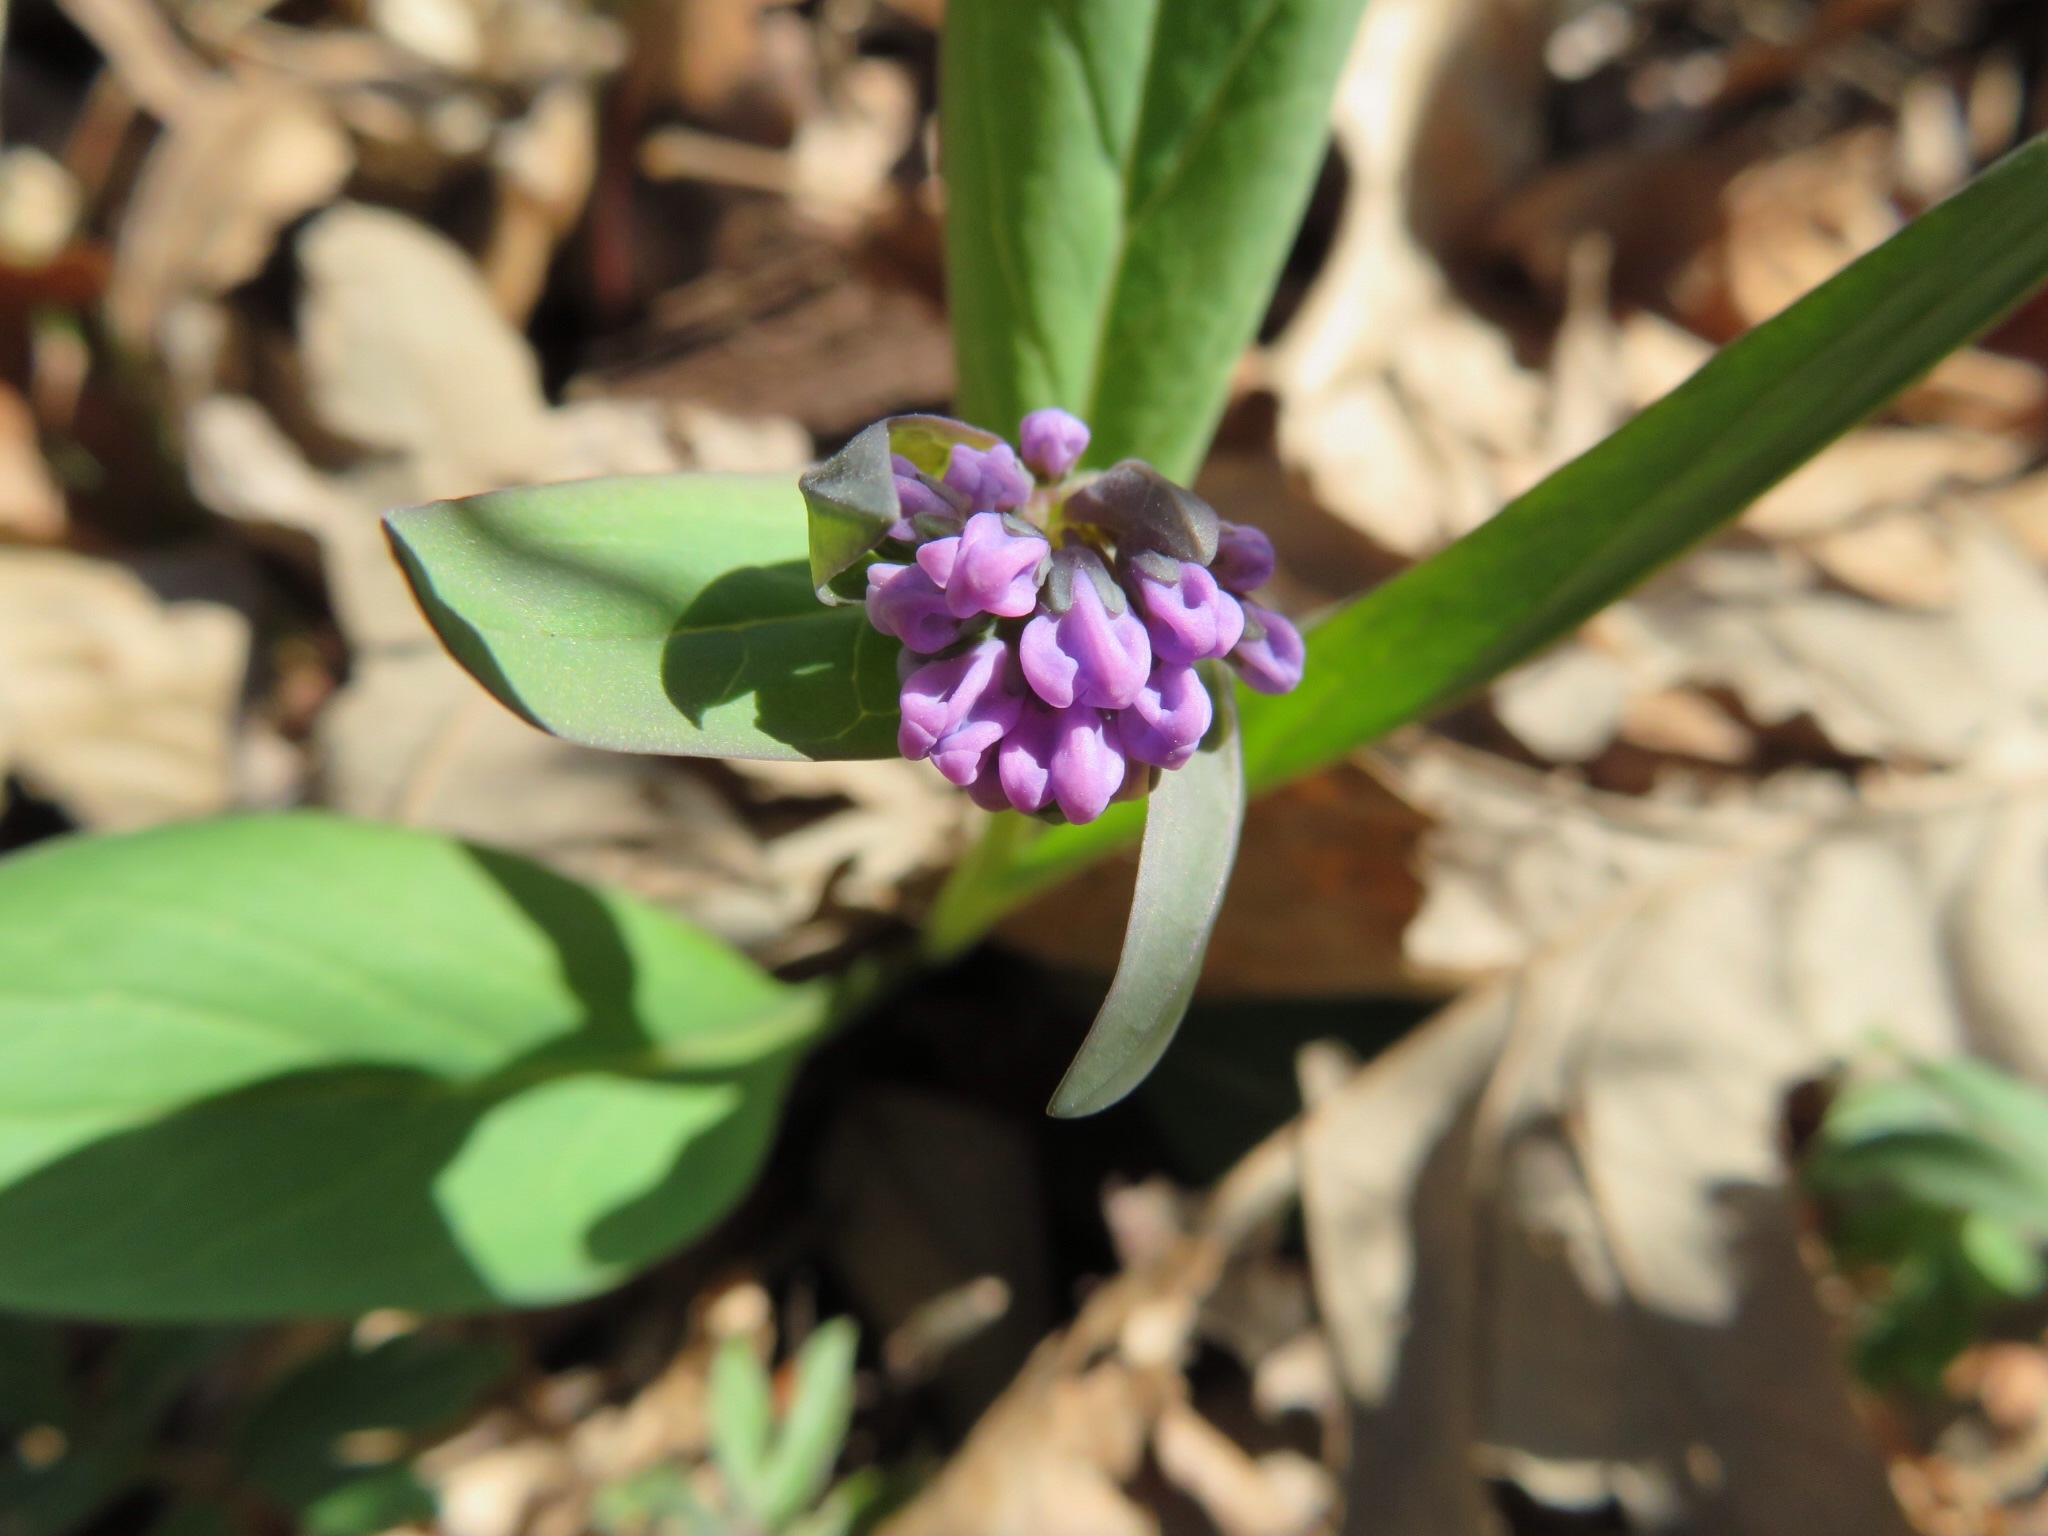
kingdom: Plantae
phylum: Tracheophyta
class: Magnoliopsida
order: Boraginales
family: Boraginaceae
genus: Mertensia
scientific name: Mertensia virginica
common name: Virginia bluebells
